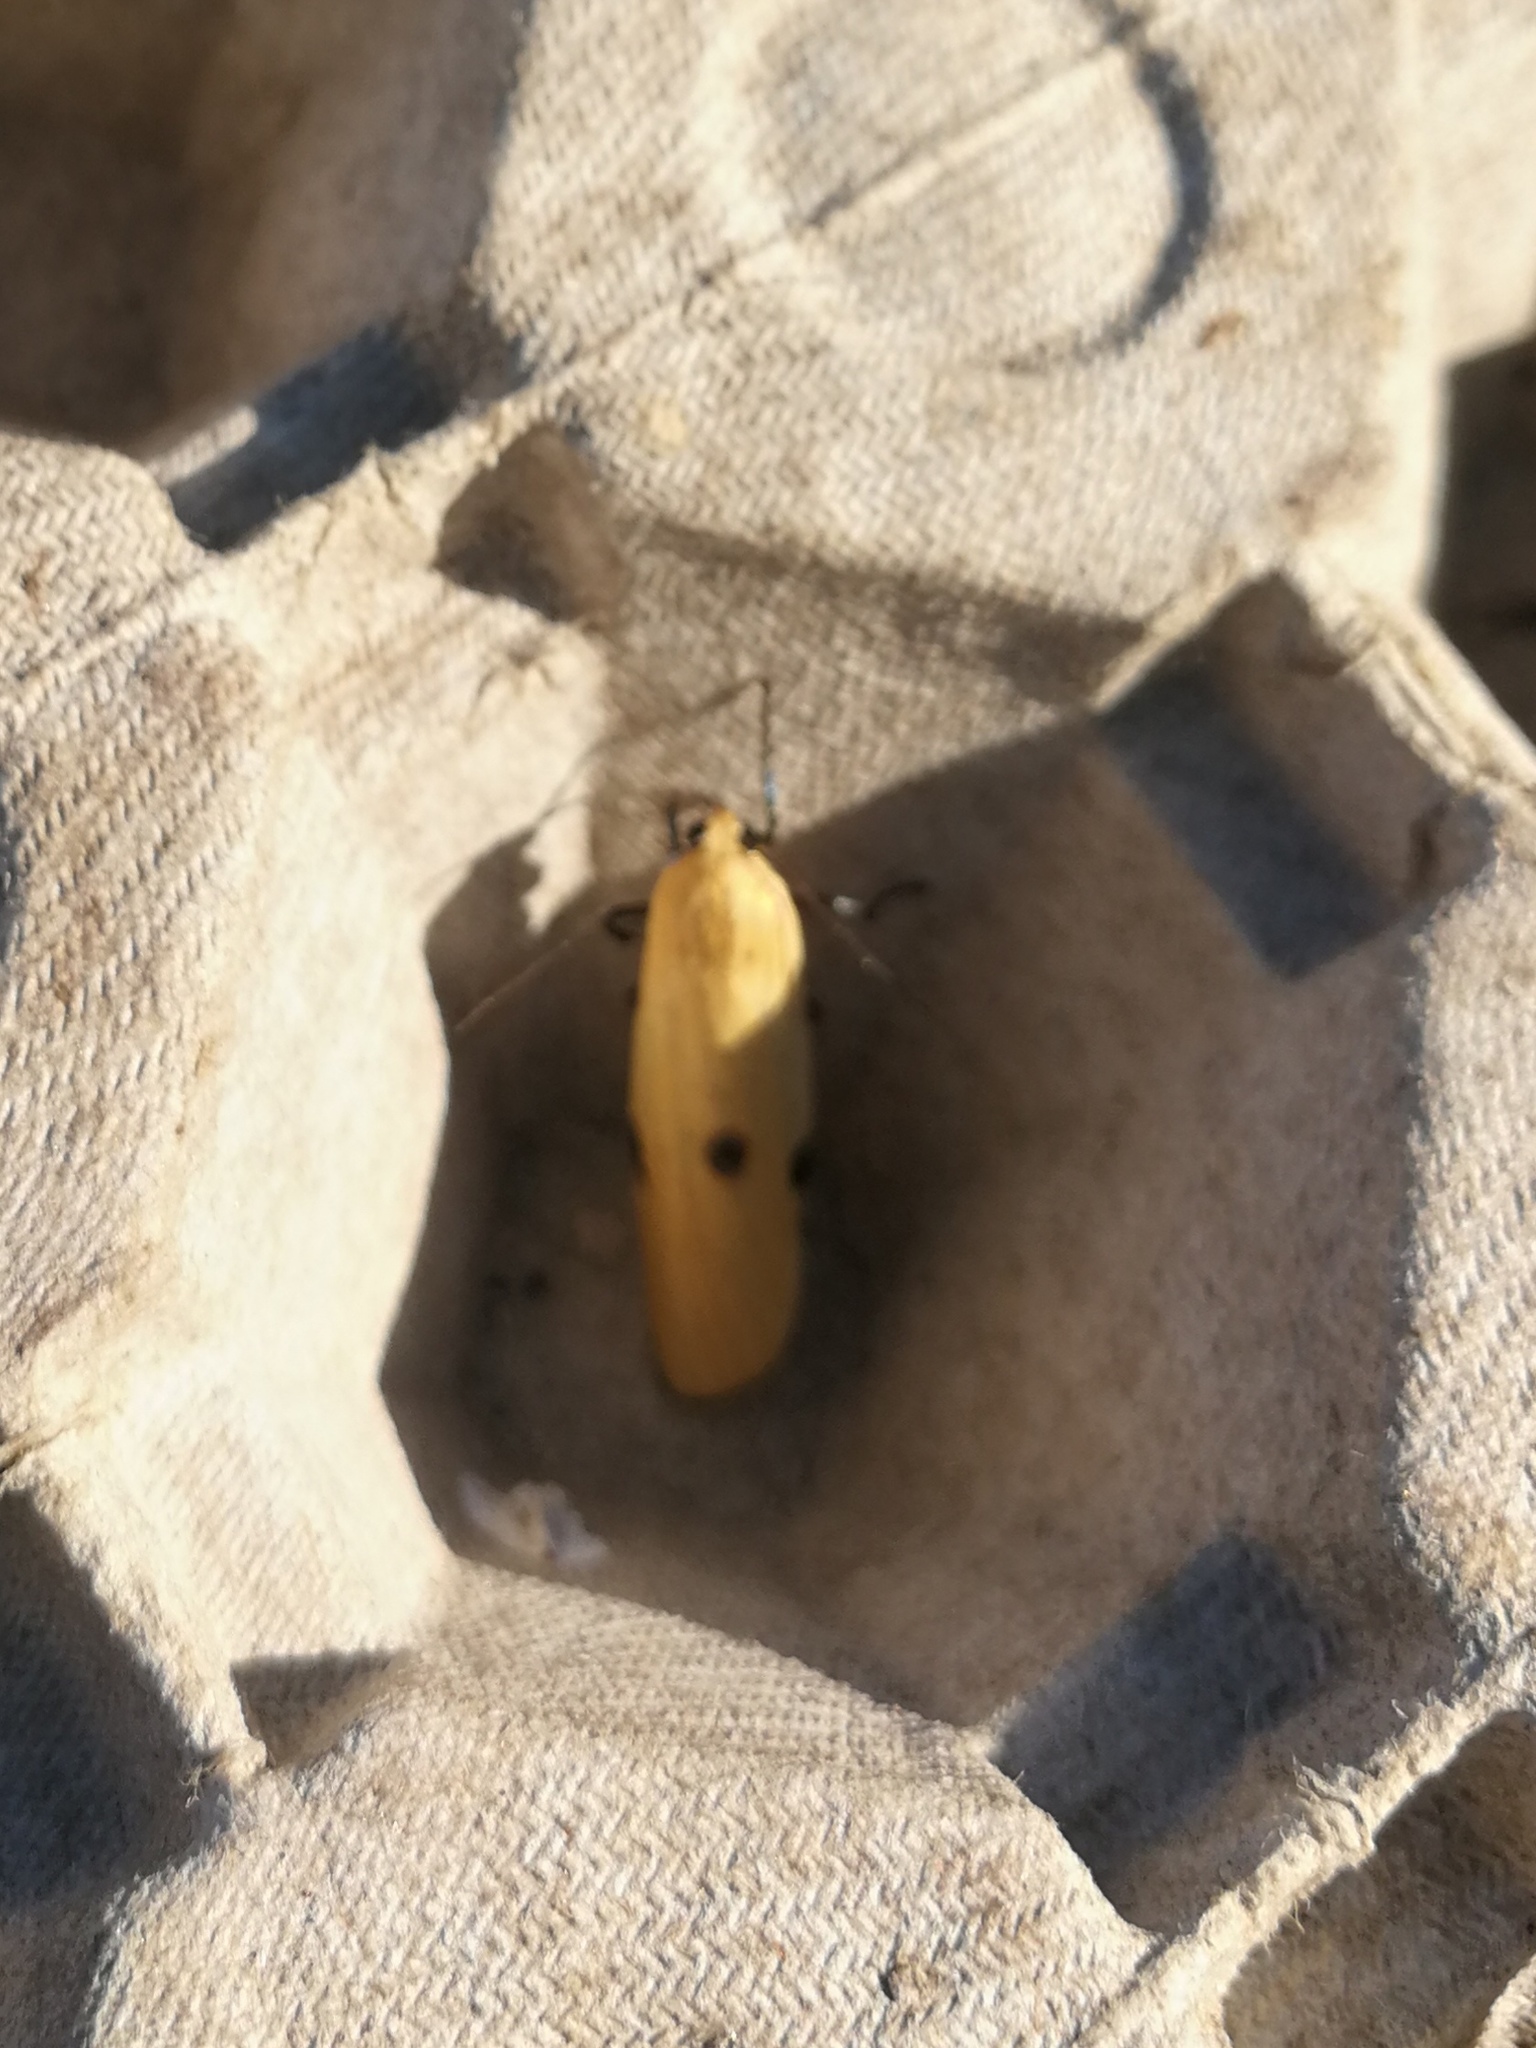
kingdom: Animalia
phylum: Arthropoda
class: Insecta
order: Lepidoptera
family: Erebidae
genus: Lithosia
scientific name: Lithosia quadra
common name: Four-spotted footman
